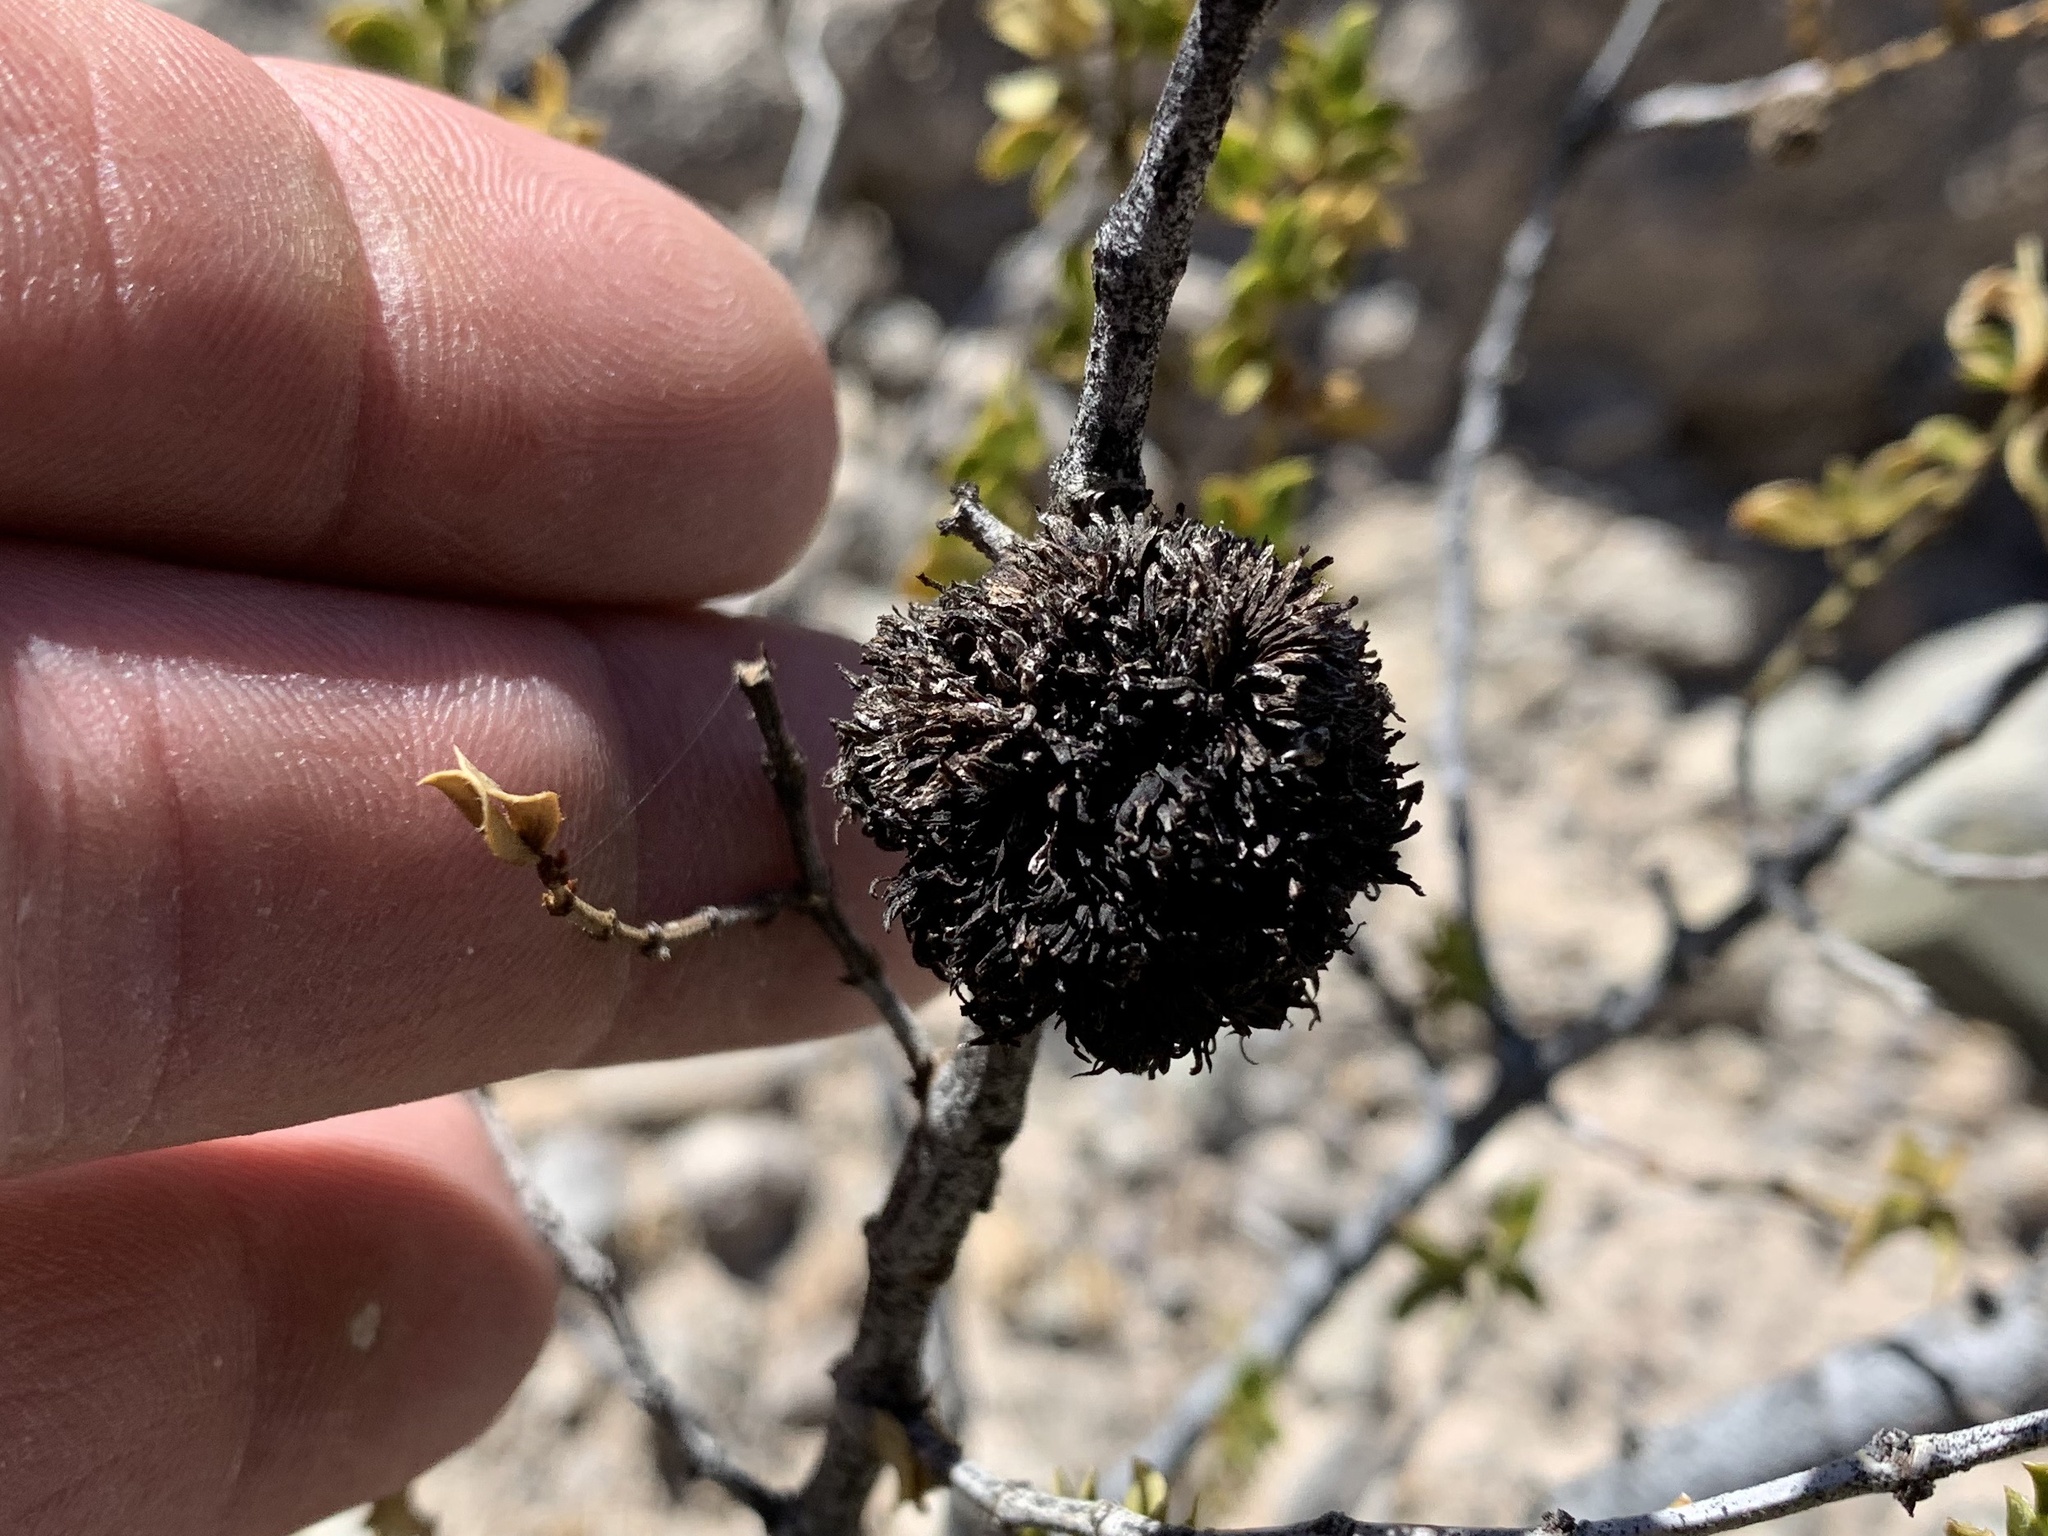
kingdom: Animalia
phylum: Arthropoda
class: Insecta
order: Diptera
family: Cecidomyiidae
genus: Asphondylia
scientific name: Asphondylia auripila
